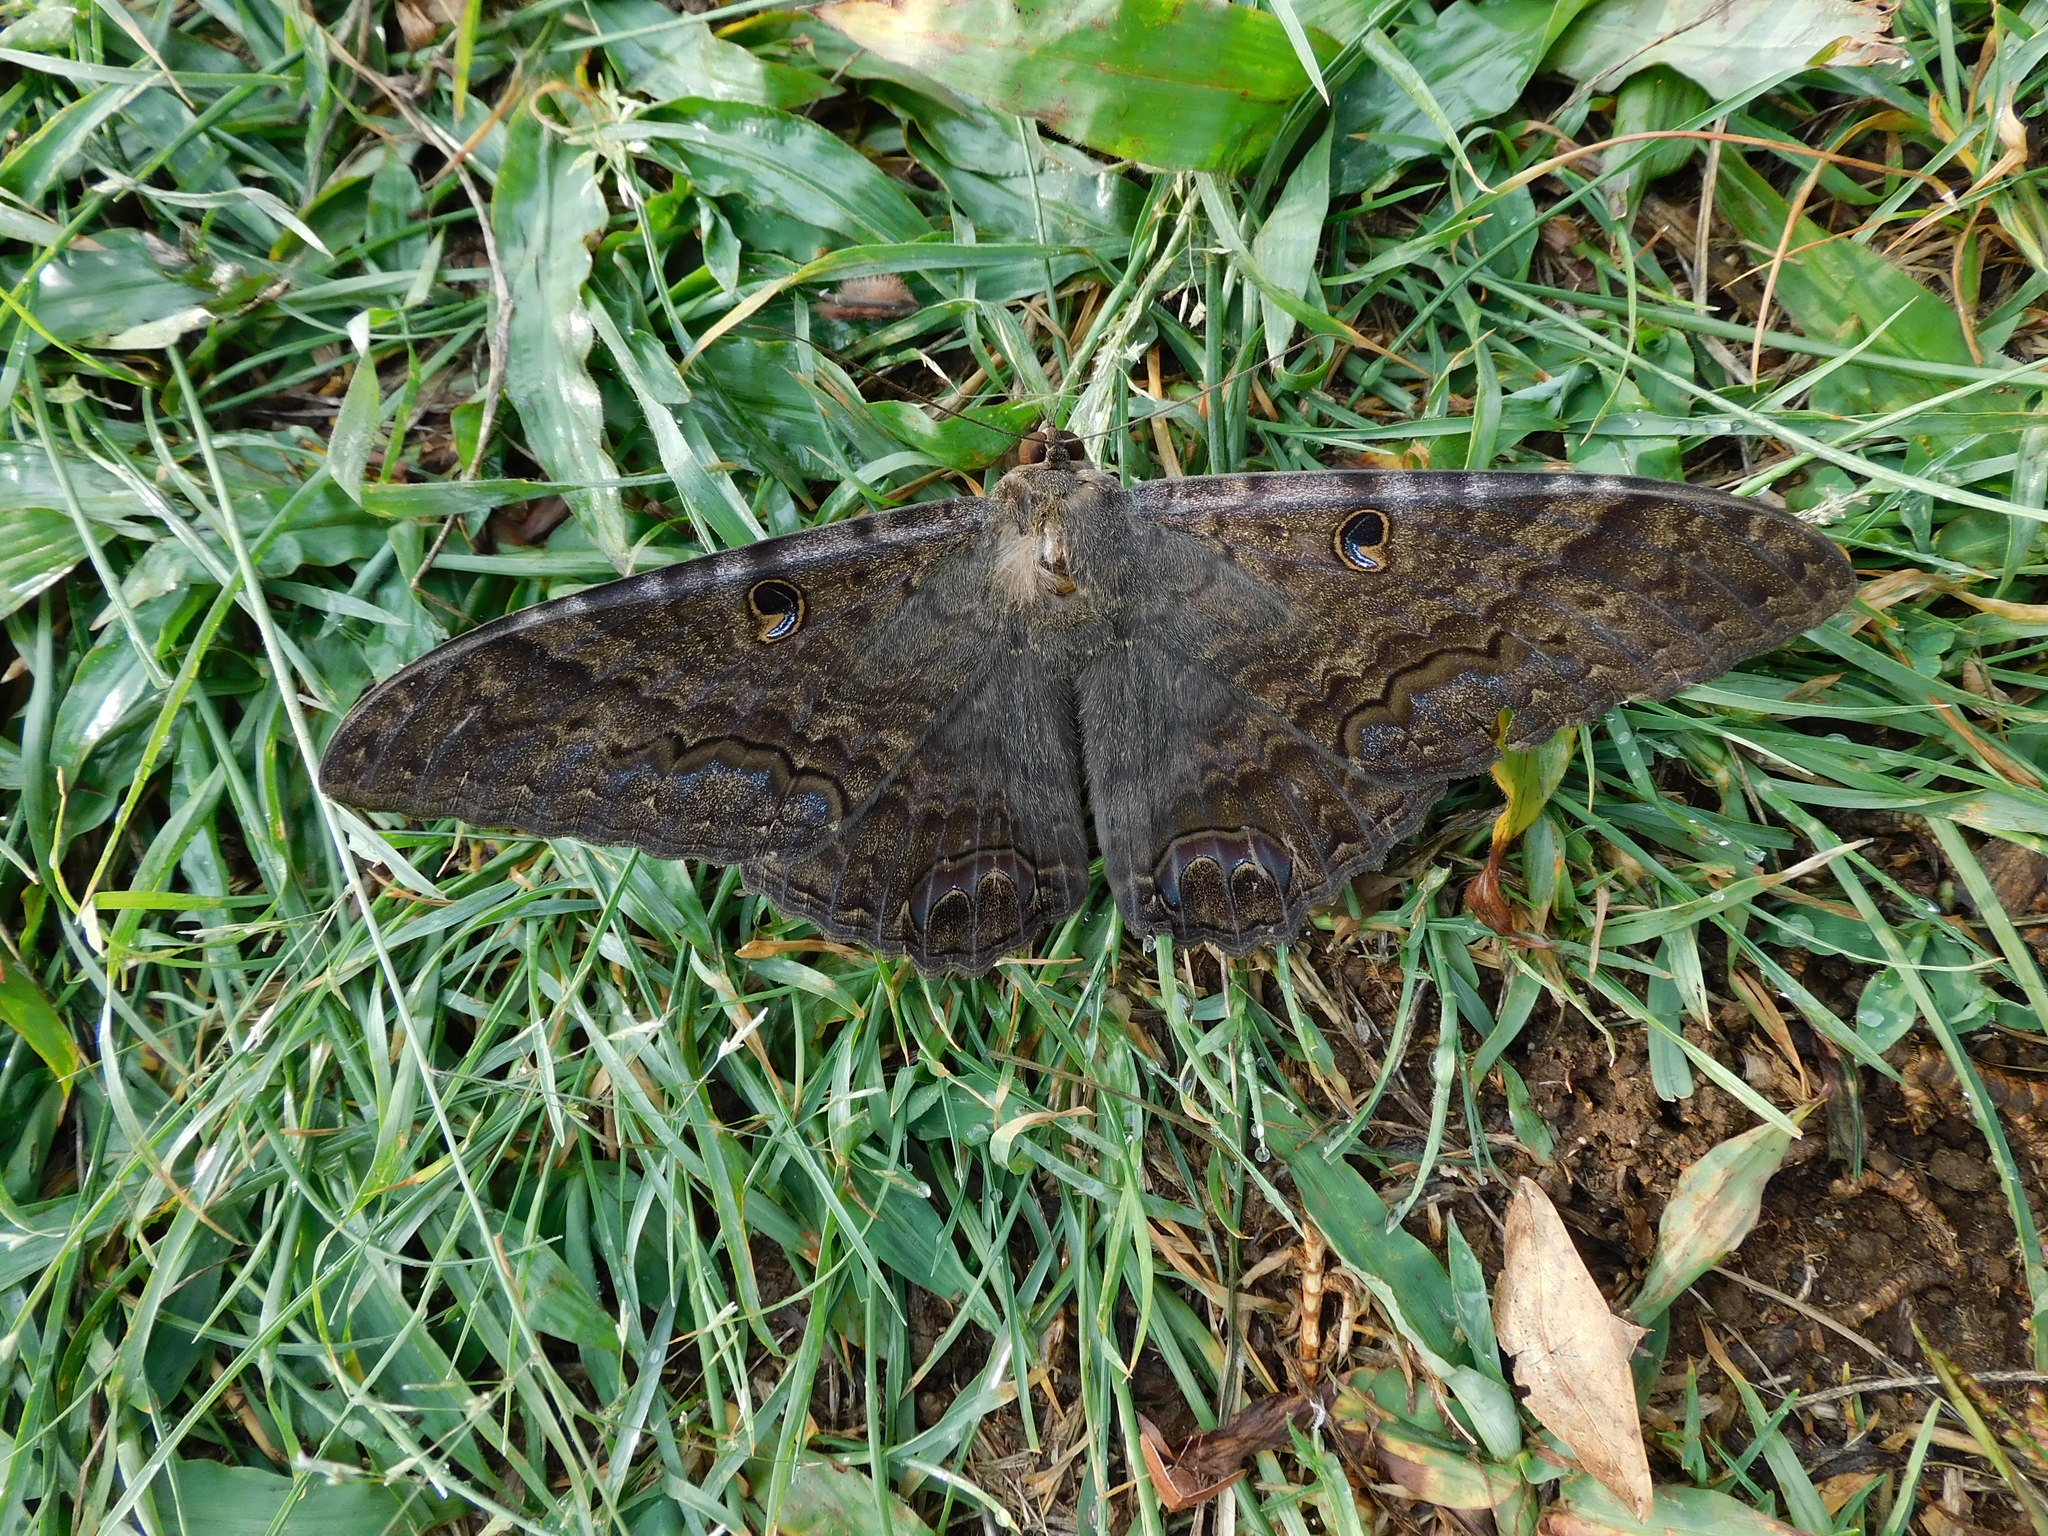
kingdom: Animalia
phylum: Arthropoda
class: Insecta
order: Lepidoptera
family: Erebidae
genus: Ascalapha
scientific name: Ascalapha odorata
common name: Black witch
